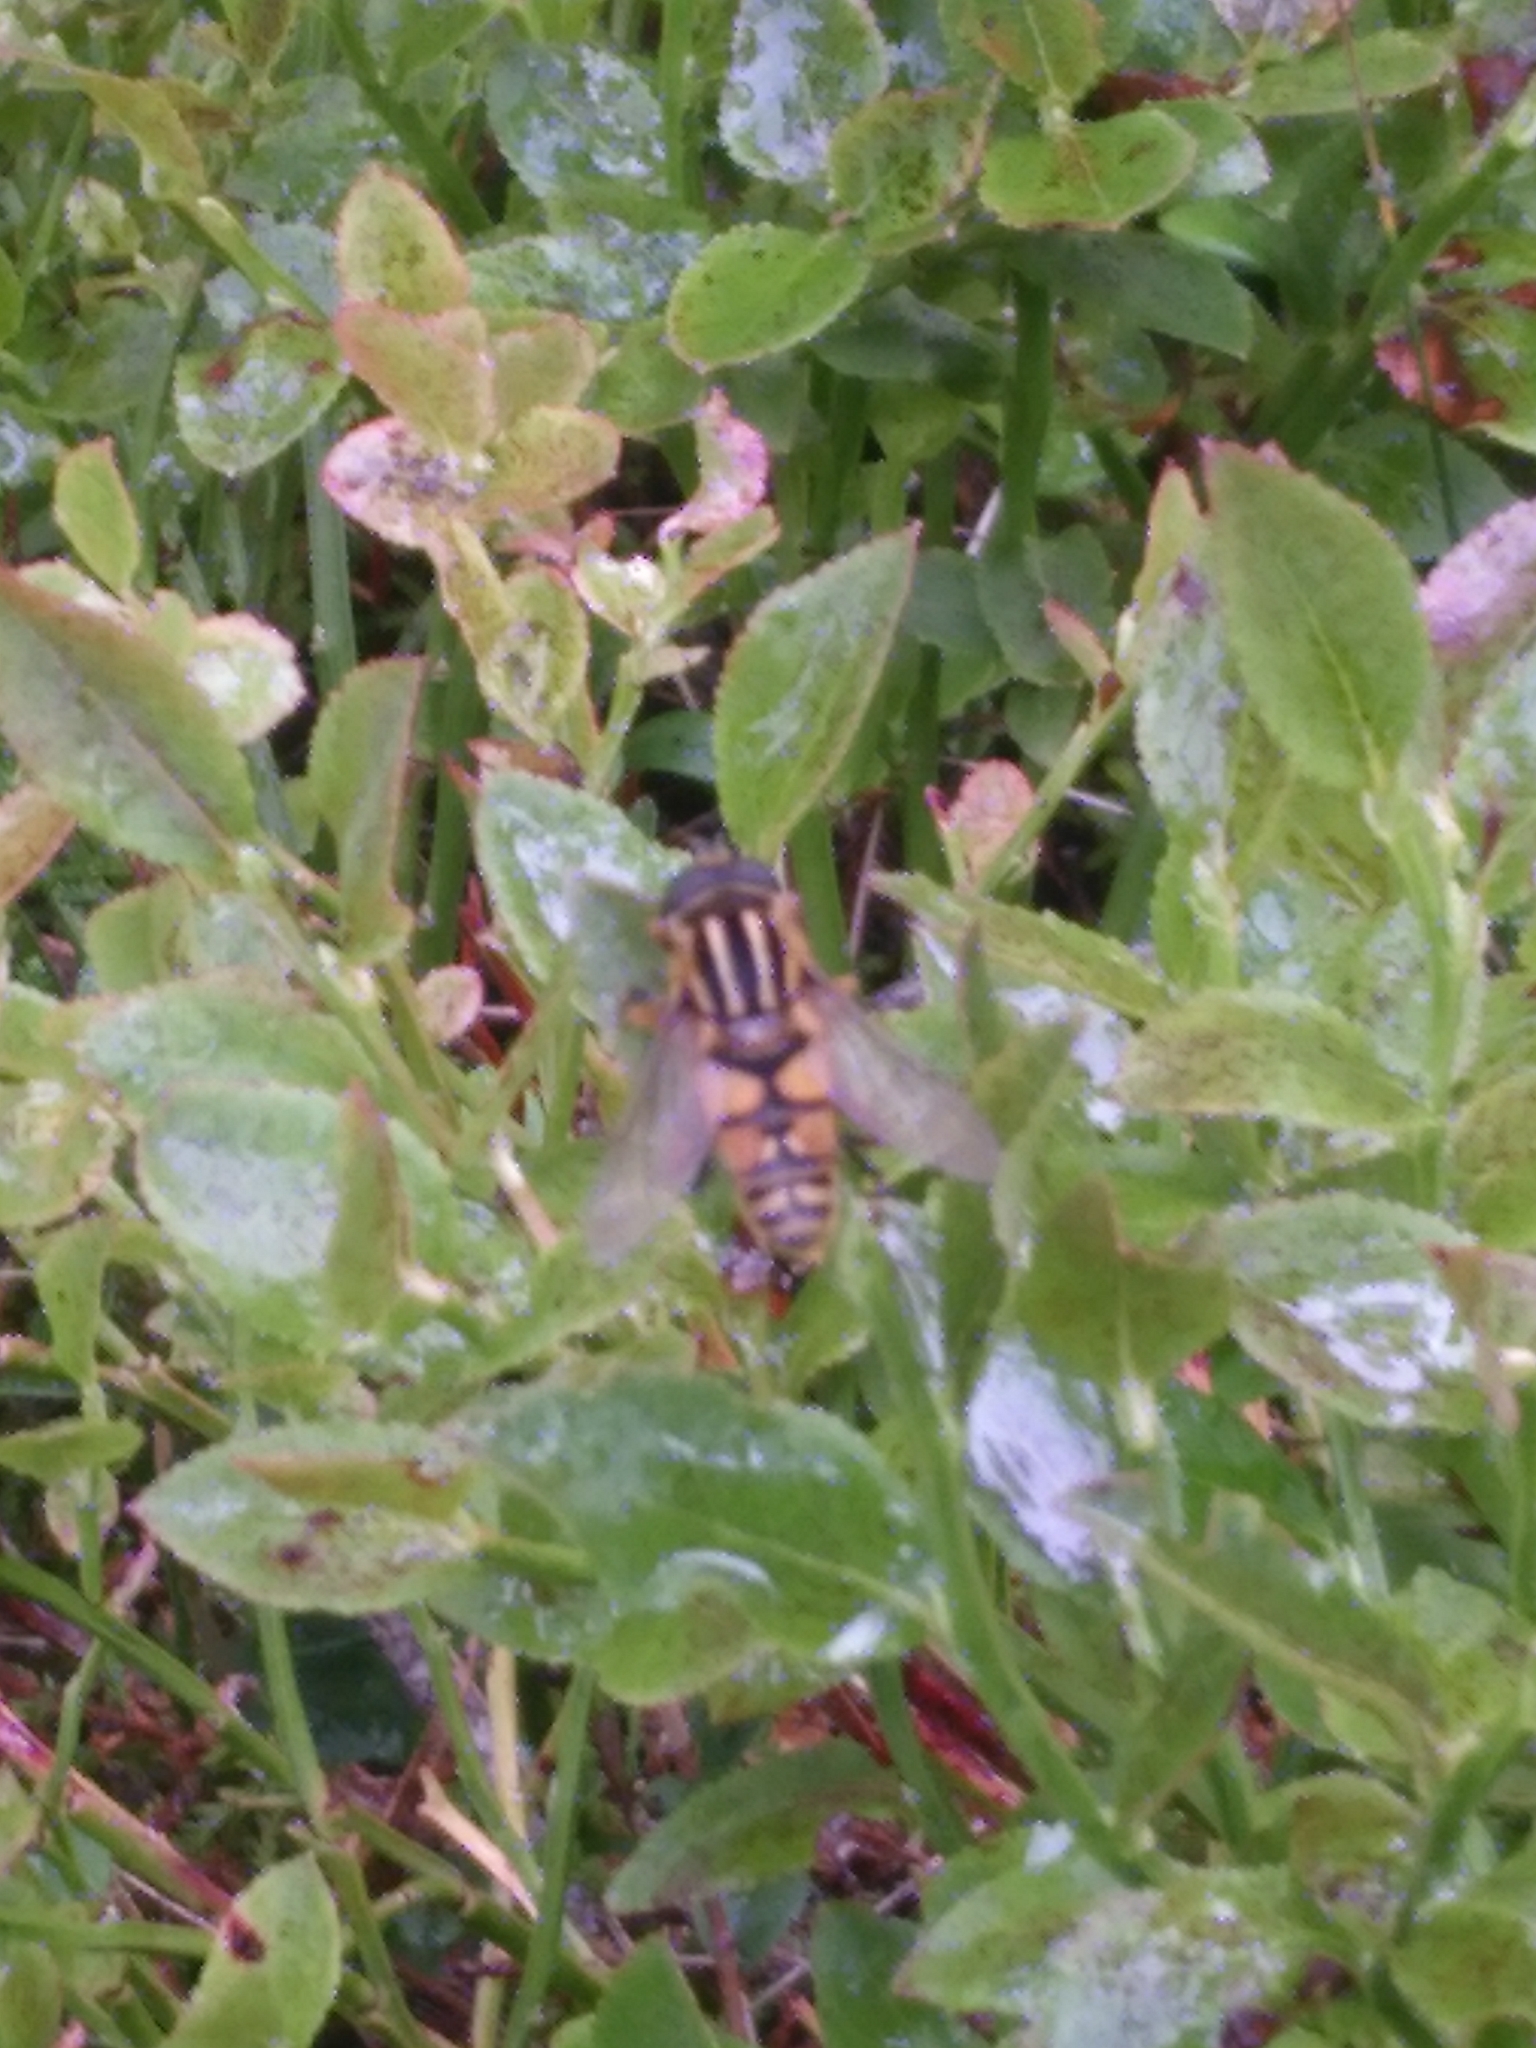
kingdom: Animalia
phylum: Arthropoda
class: Insecta
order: Diptera
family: Syrphidae
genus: Helophilus
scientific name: Helophilus pendulus
